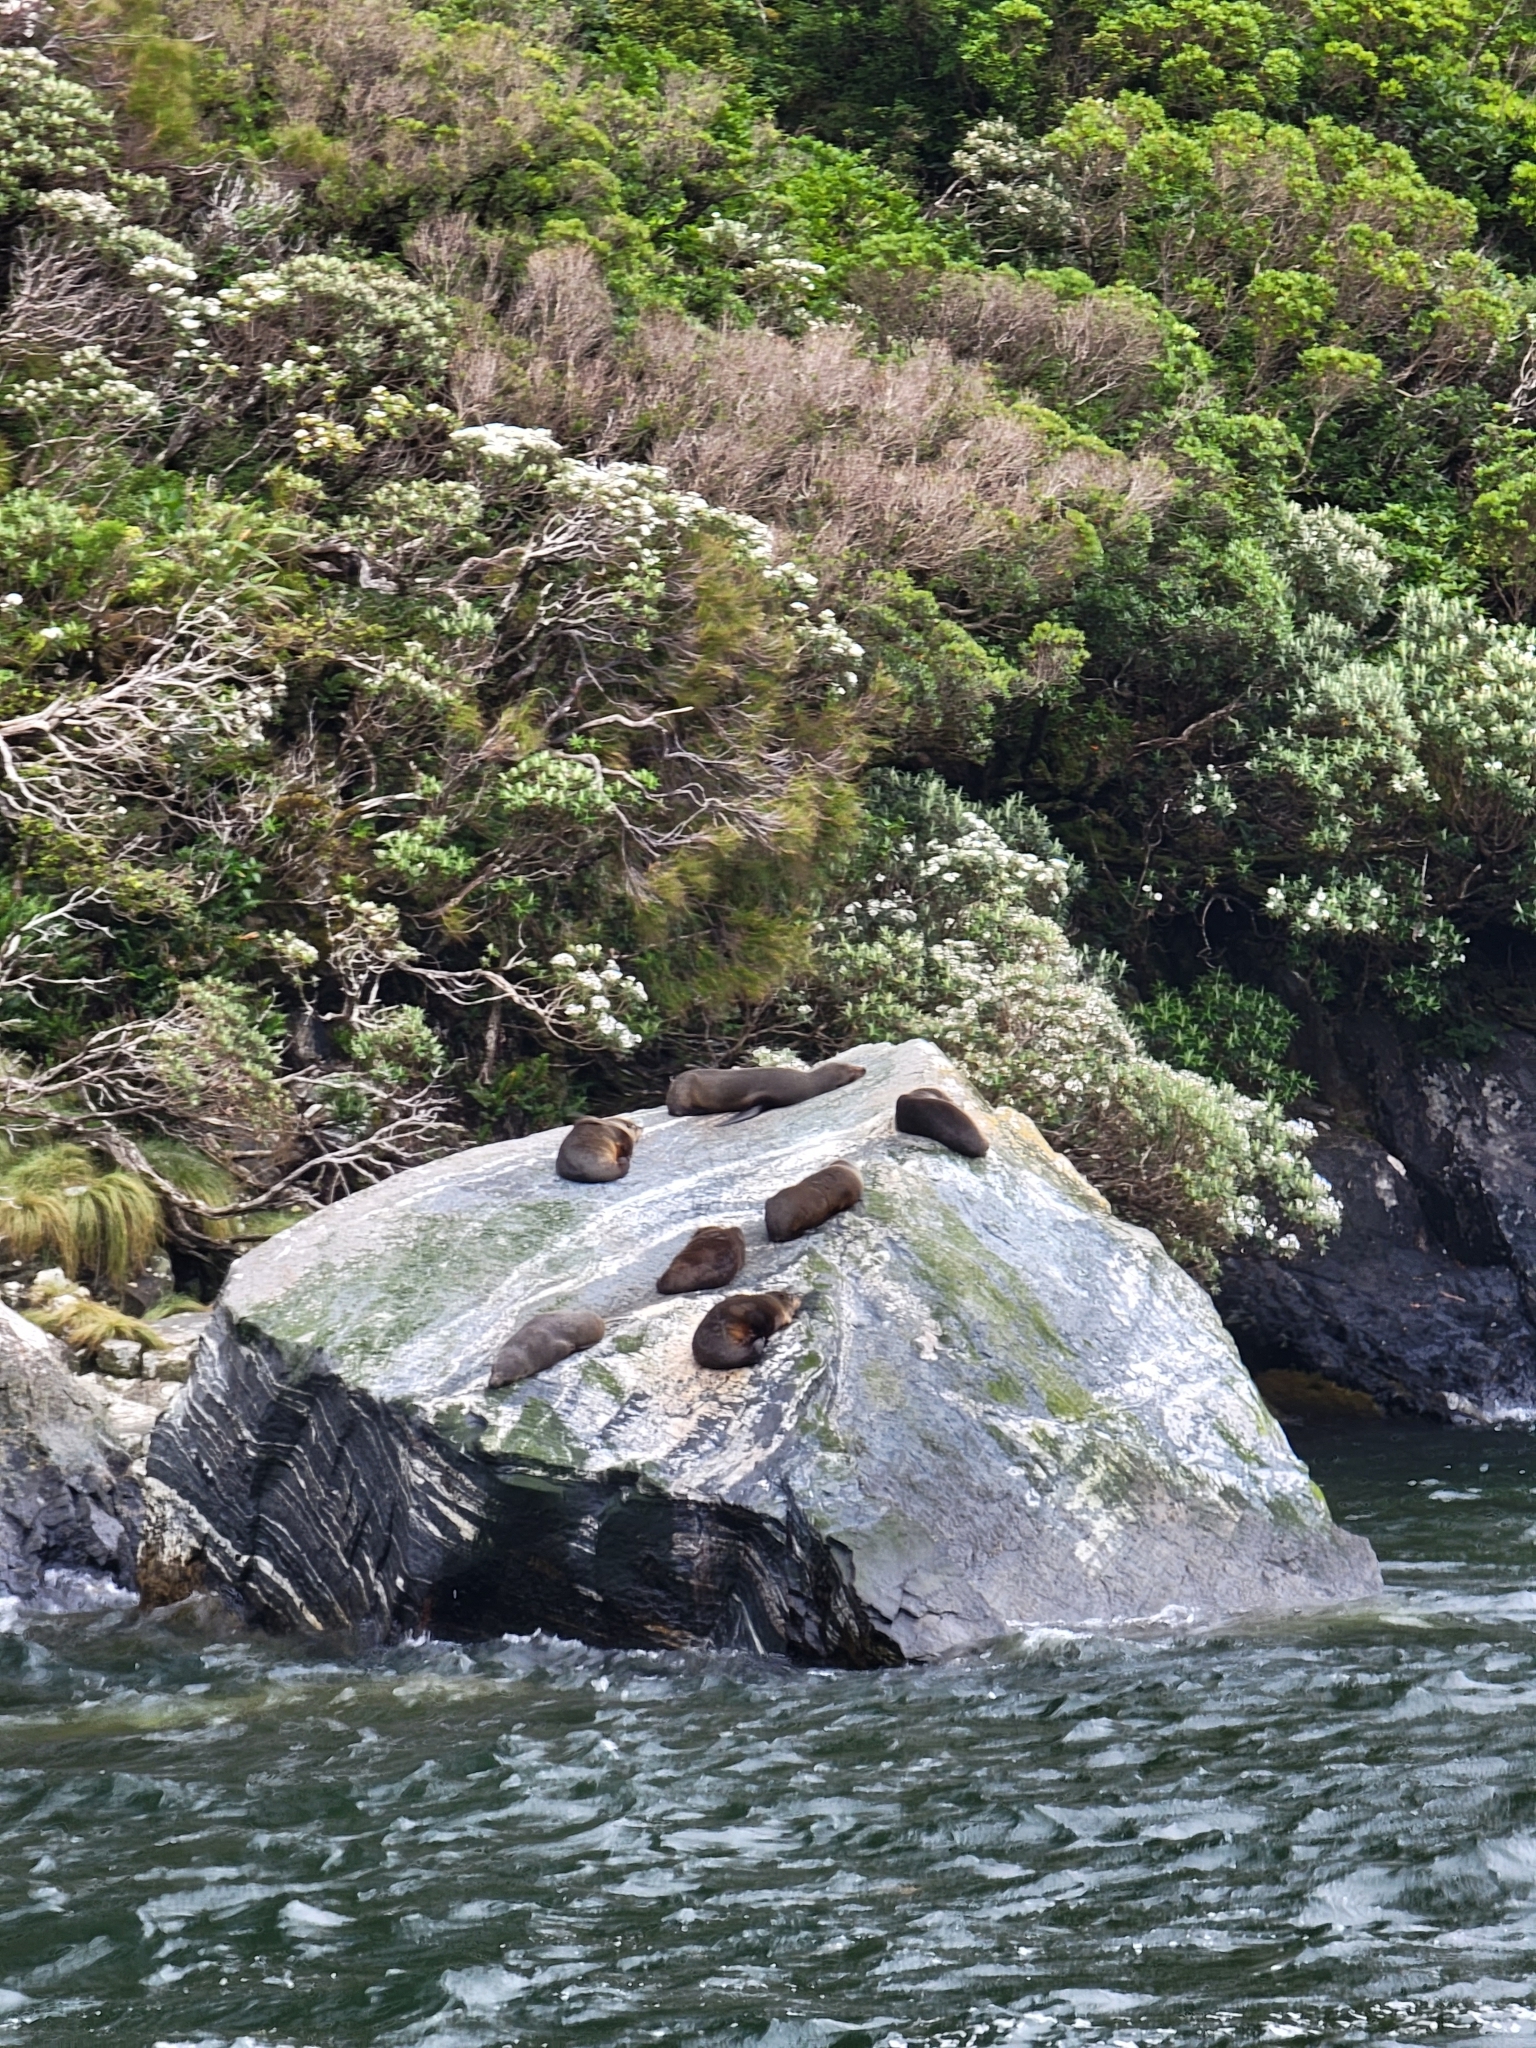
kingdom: Animalia
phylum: Chordata
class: Mammalia
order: Carnivora
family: Otariidae
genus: Arctocephalus
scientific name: Arctocephalus forsteri
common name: New zealand fur seal
